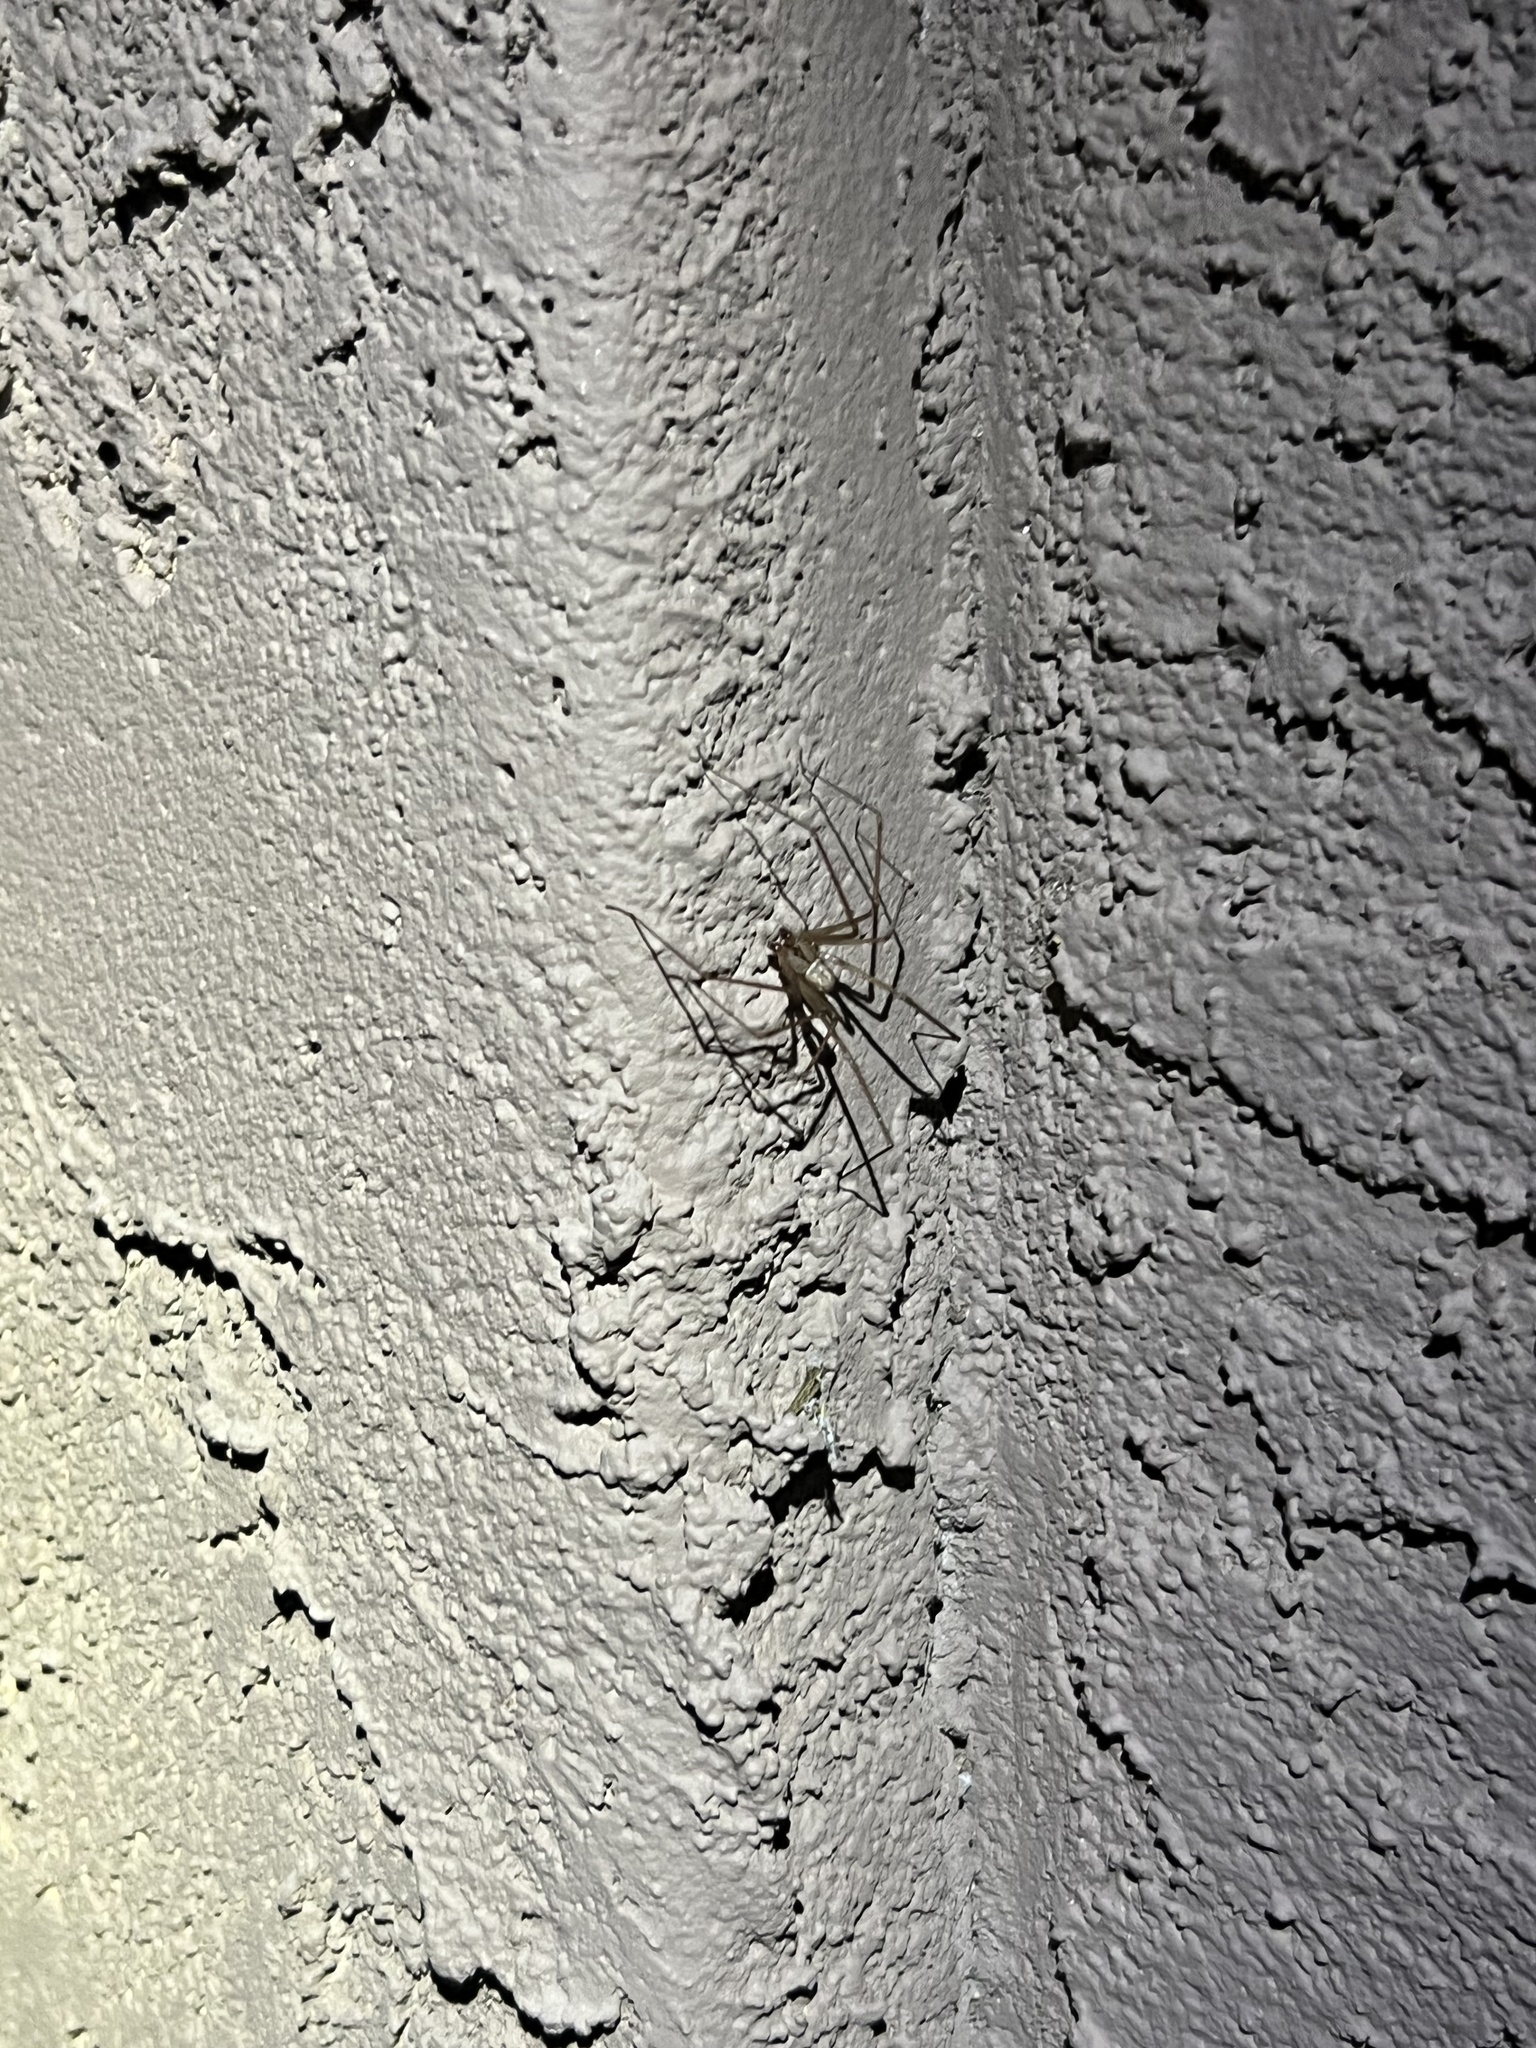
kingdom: Animalia
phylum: Arthropoda
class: Arachnida
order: Araneae
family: Pholcidae
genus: Pholcus
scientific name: Pholcus phalangioides
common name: Longbodied cellar spider
